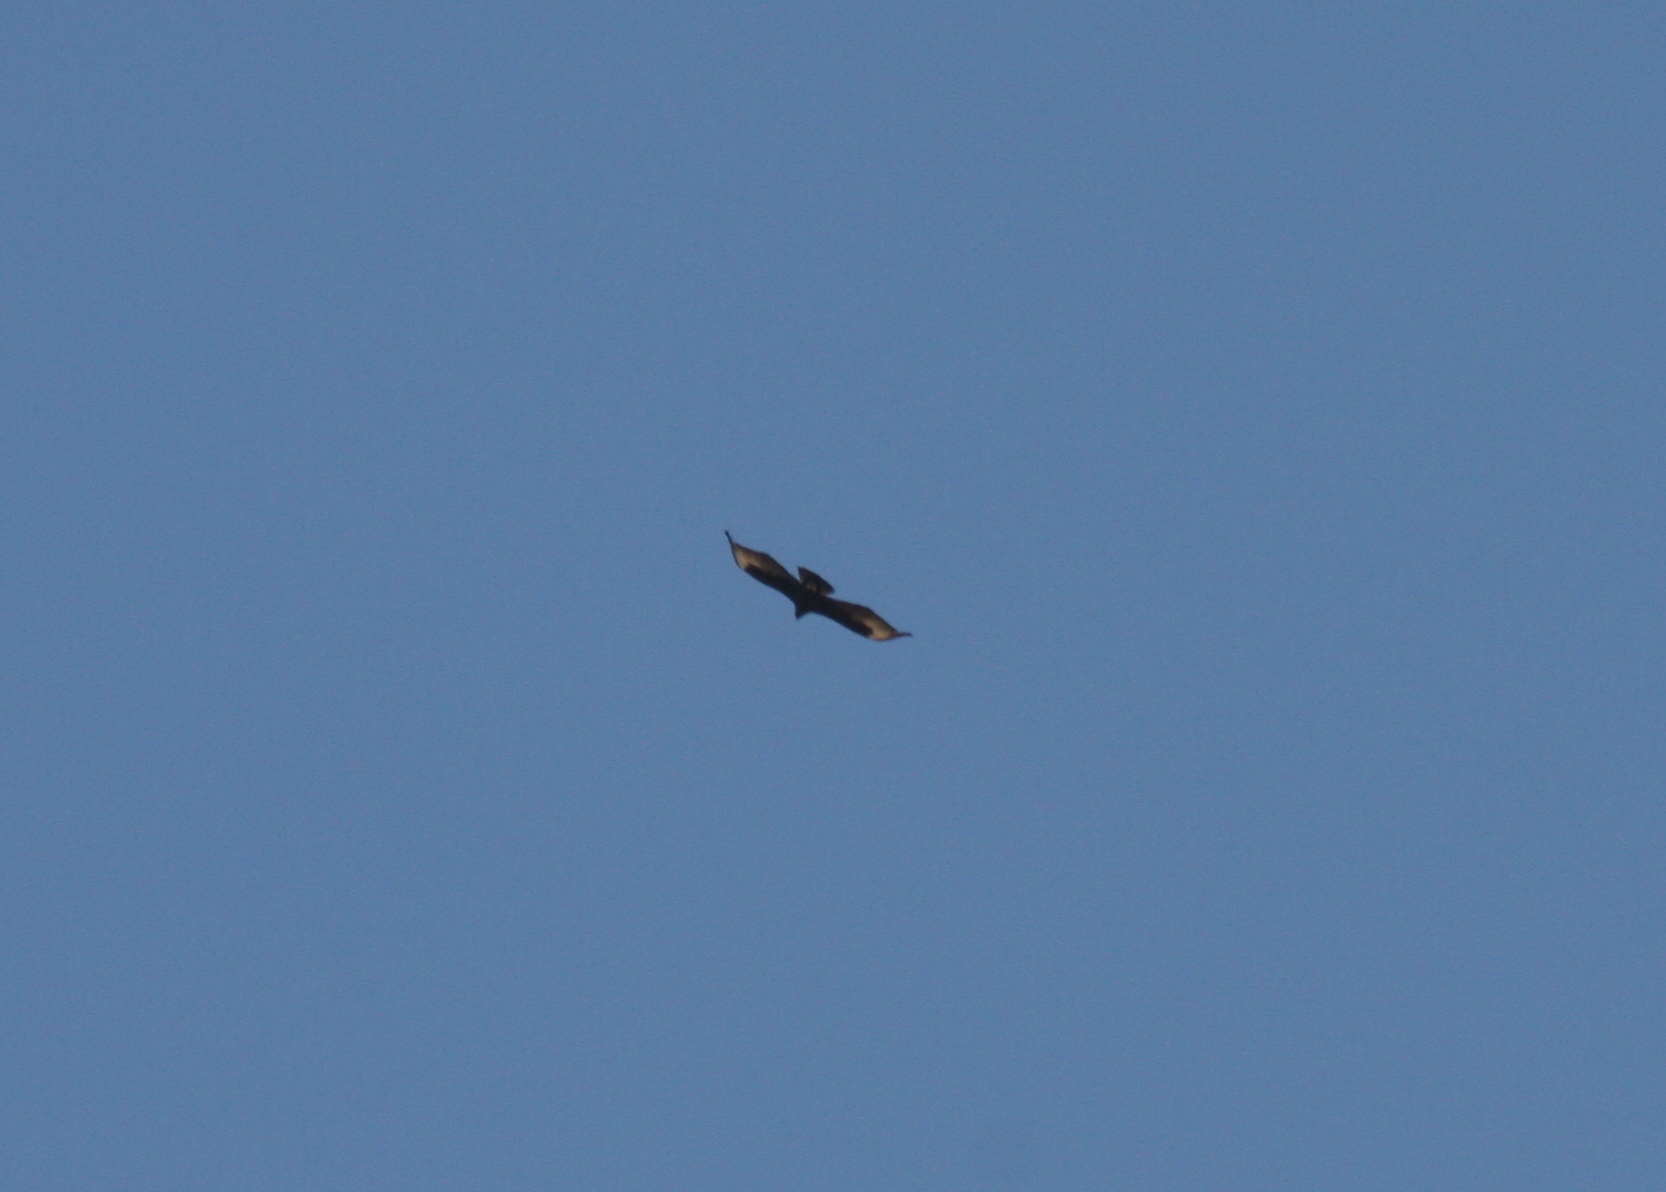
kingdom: Animalia
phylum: Chordata
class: Aves
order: Accipitriformes
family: Accipitridae
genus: Aquila
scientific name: Aquila verreauxii
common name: Verreaux's eagle
